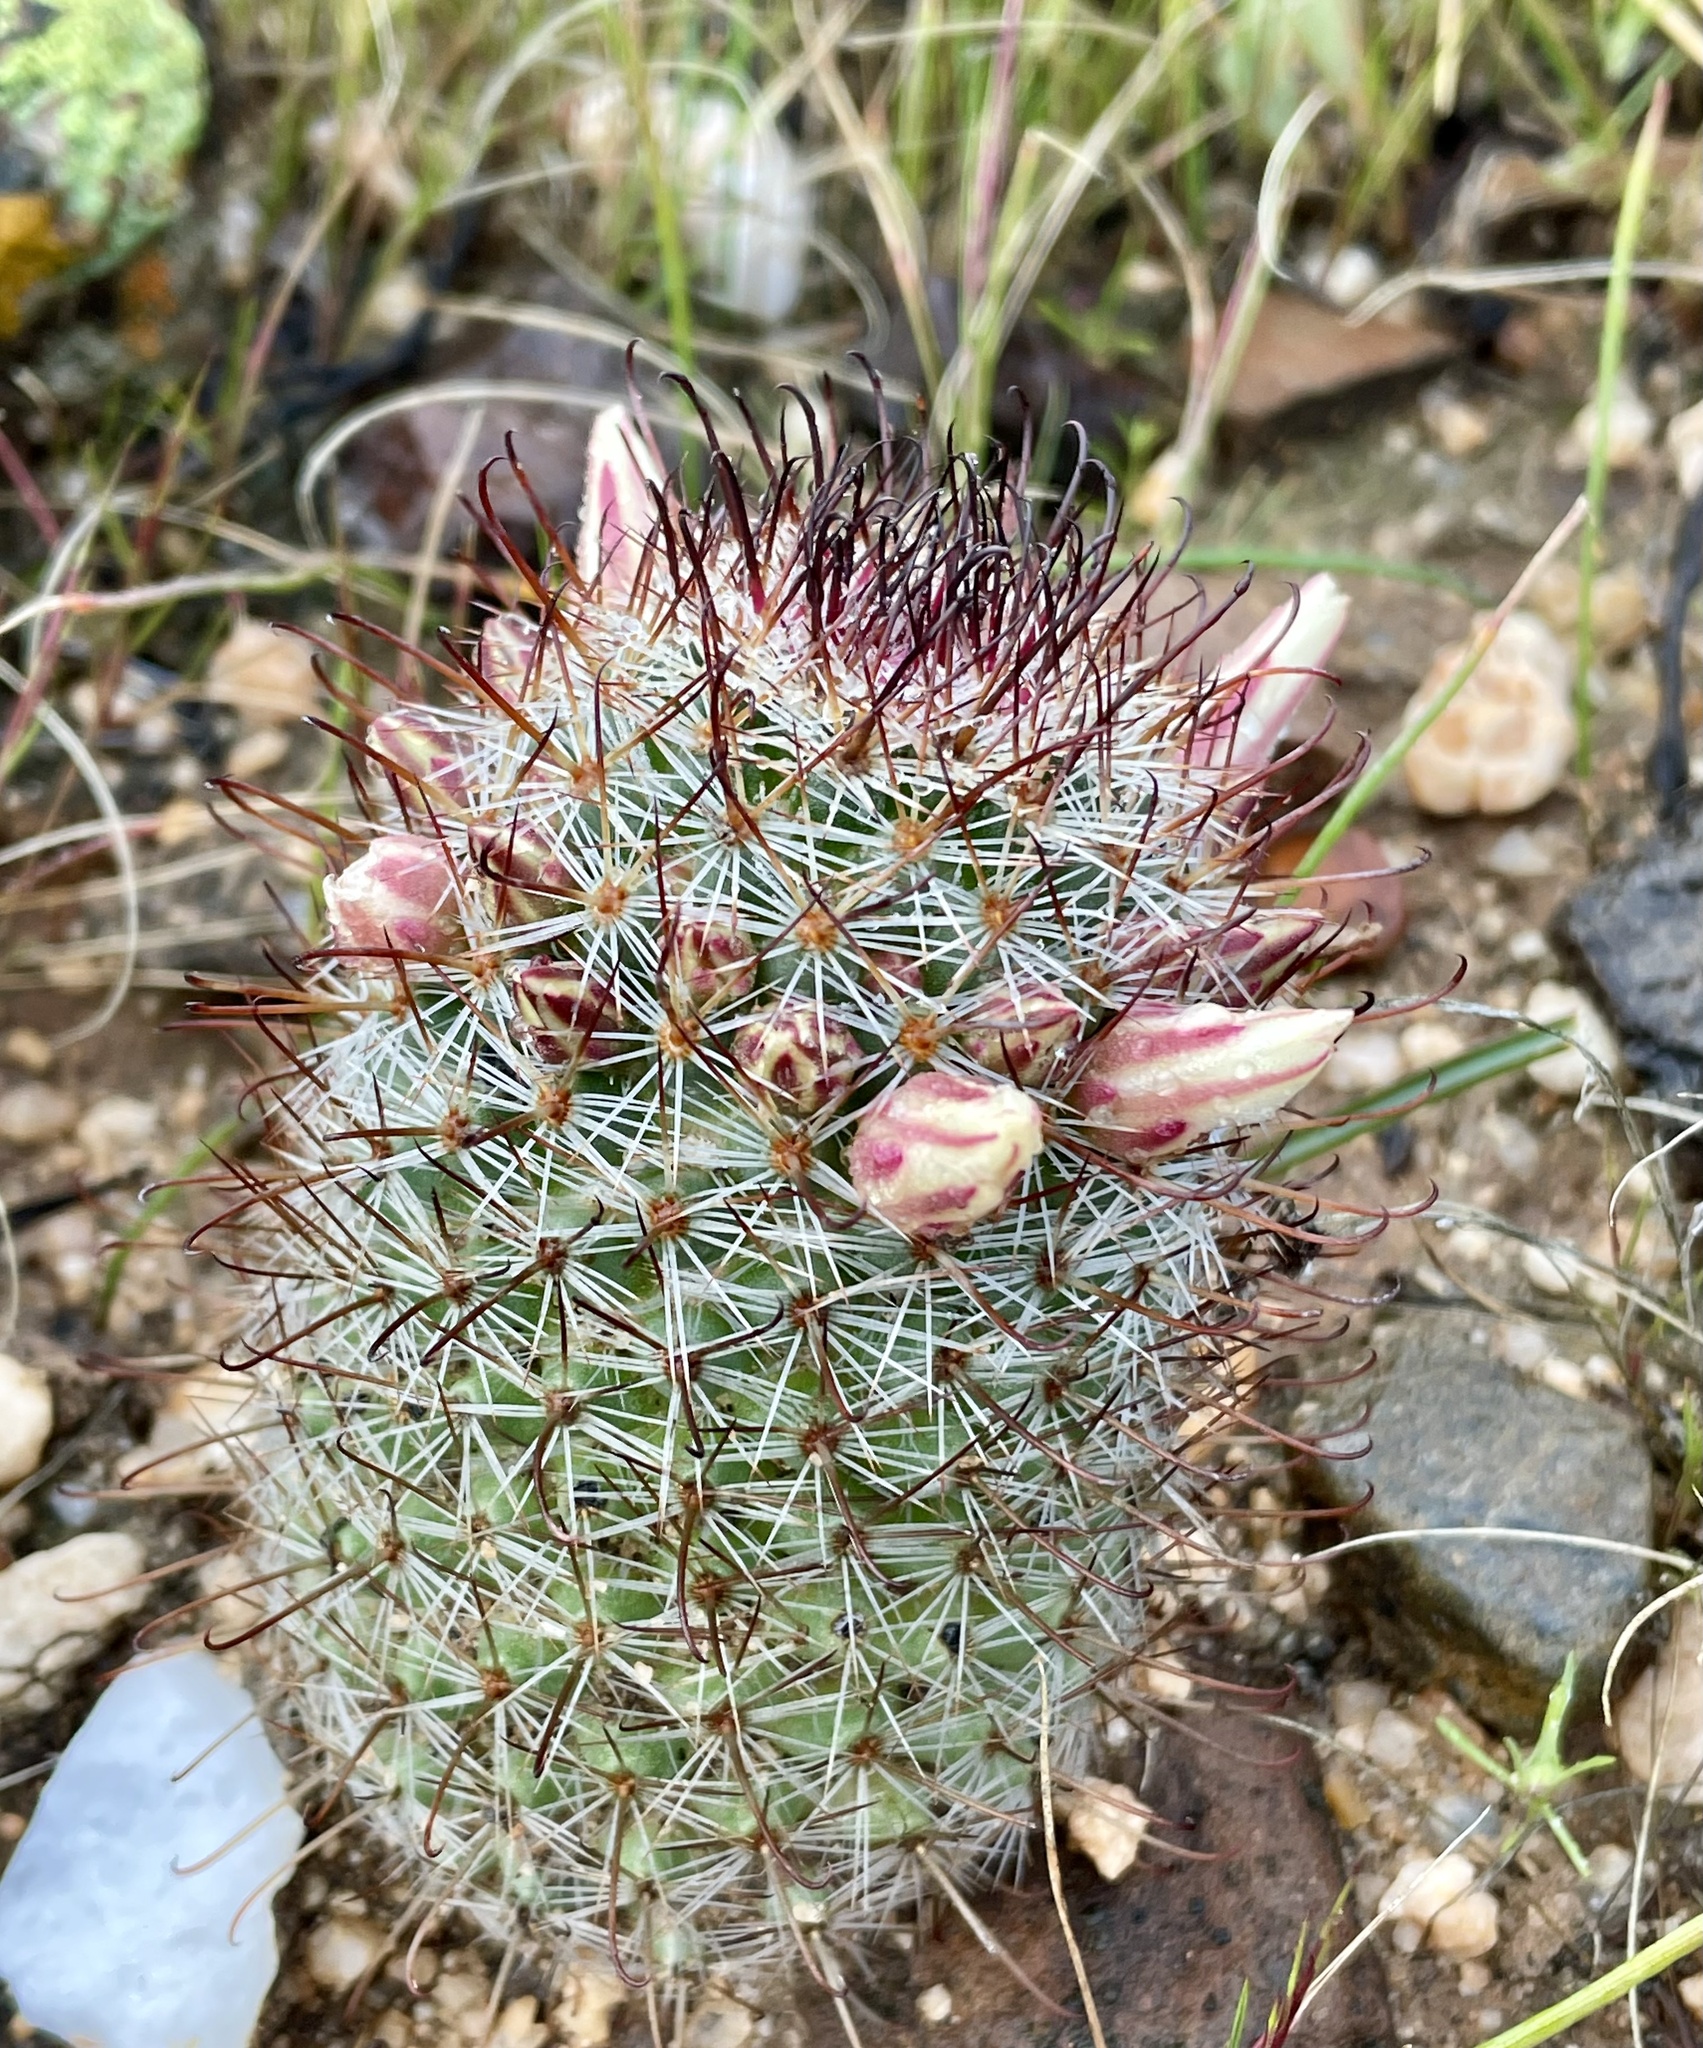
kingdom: Plantae
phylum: Tracheophyta
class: Magnoliopsida
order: Caryophyllales
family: Cactaceae
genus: Cochemiea
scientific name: Cochemiea dioica
